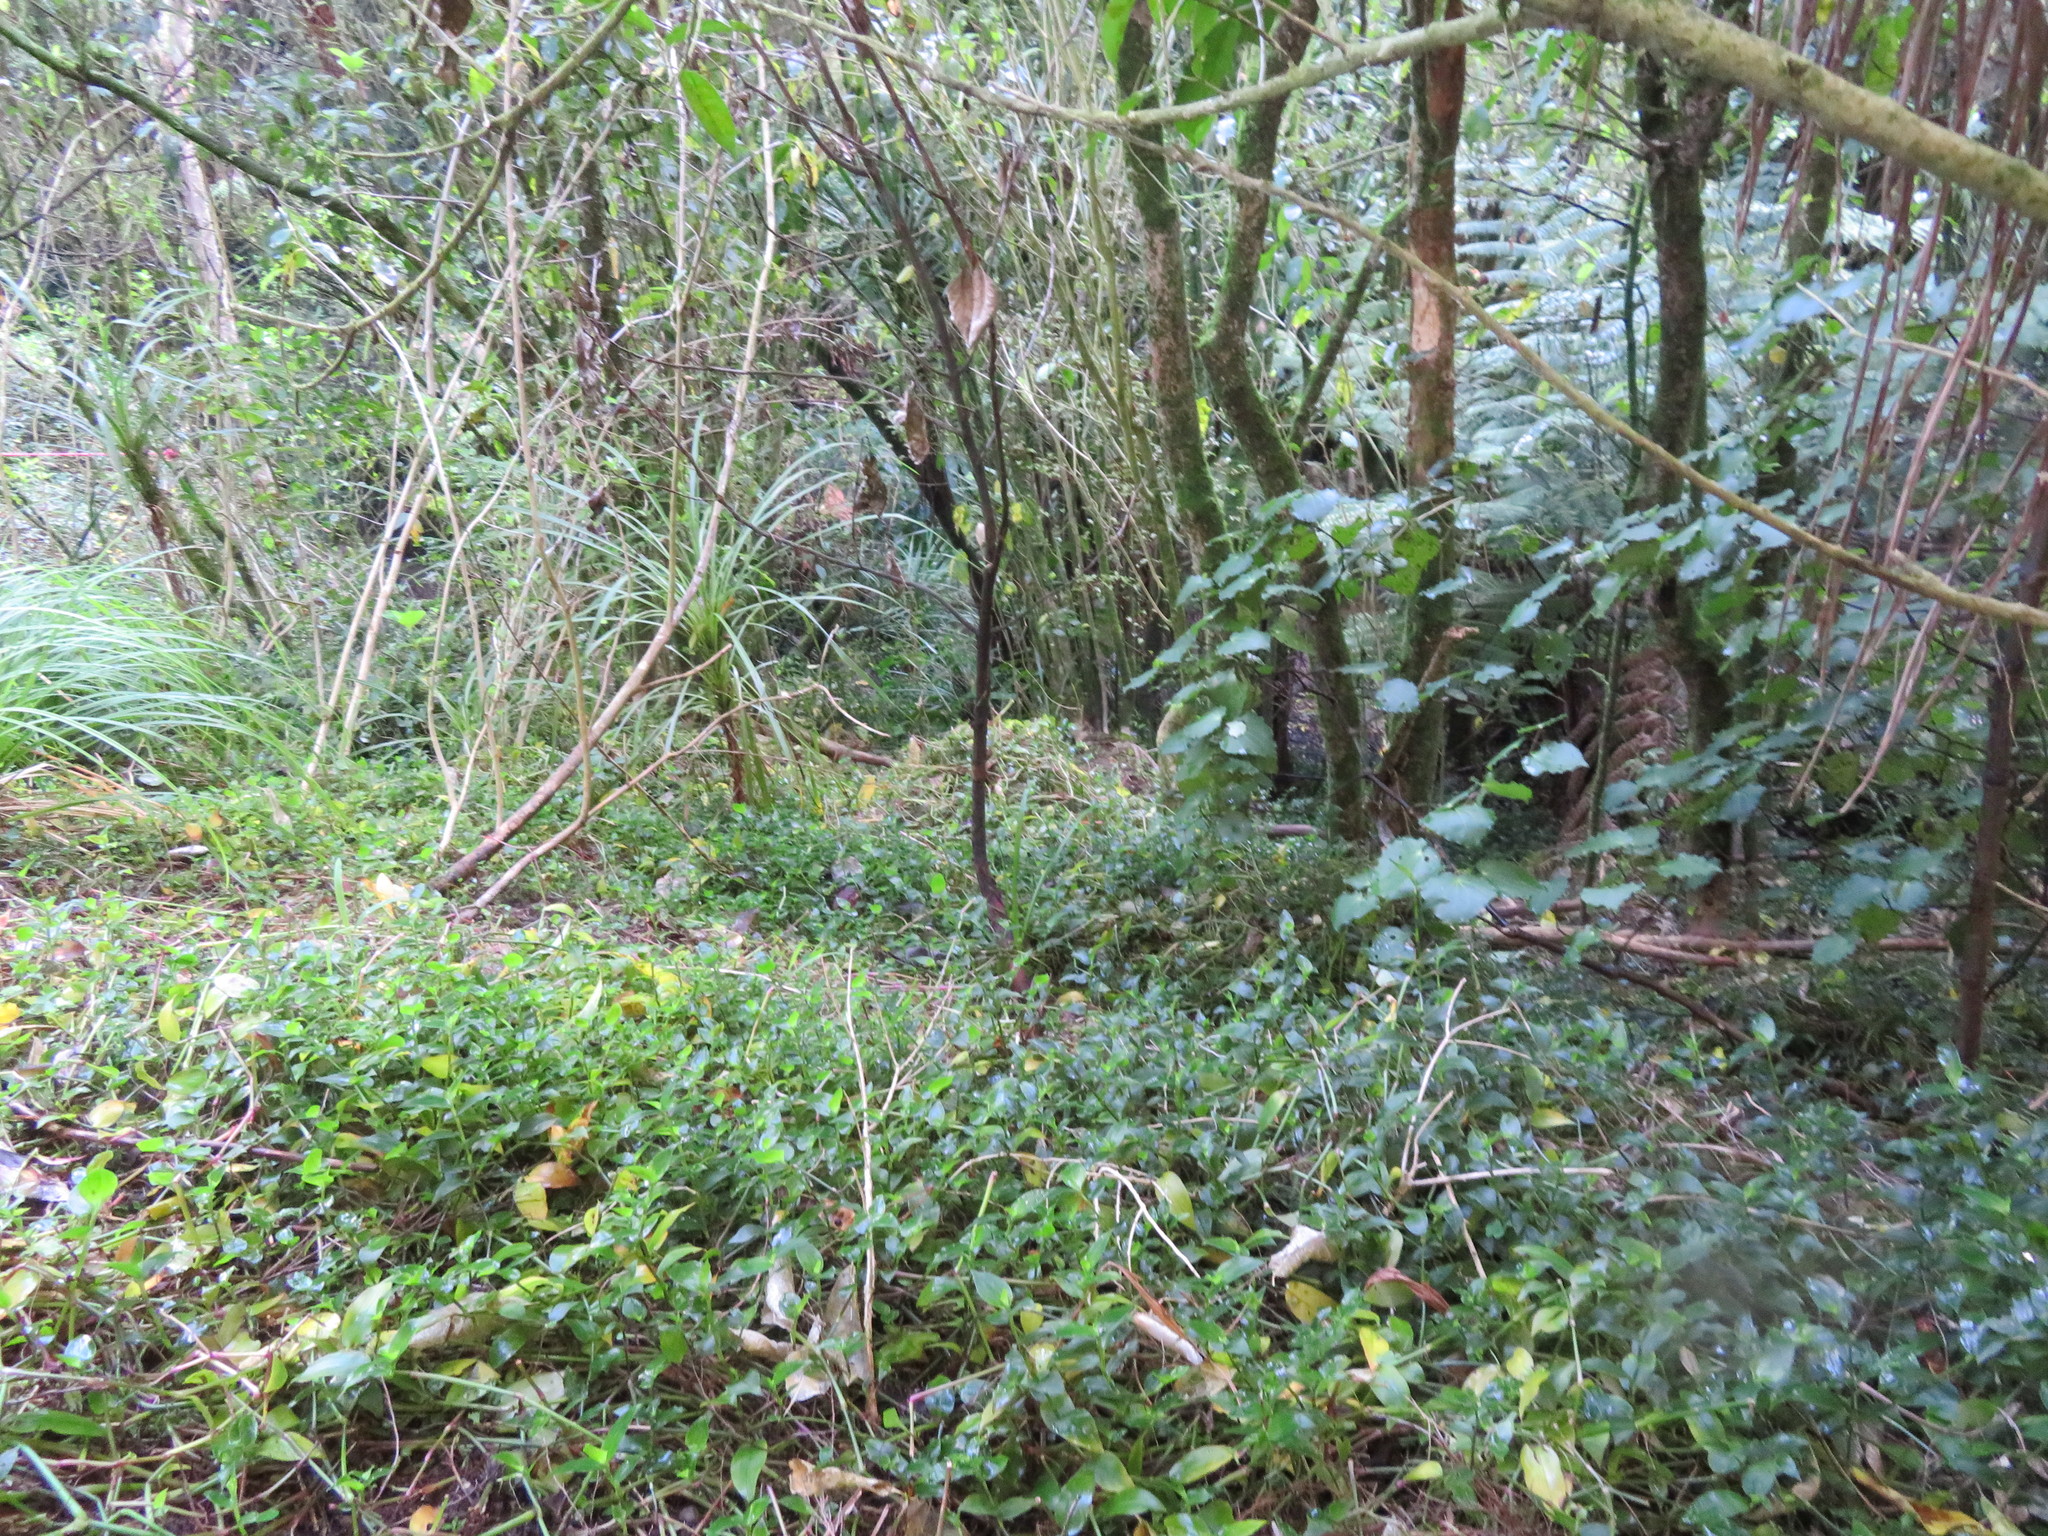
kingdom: Plantae
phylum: Tracheophyta
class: Liliopsida
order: Asparagales
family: Asparagaceae
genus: Cordyline
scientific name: Cordyline australis
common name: Cabbage-palm
